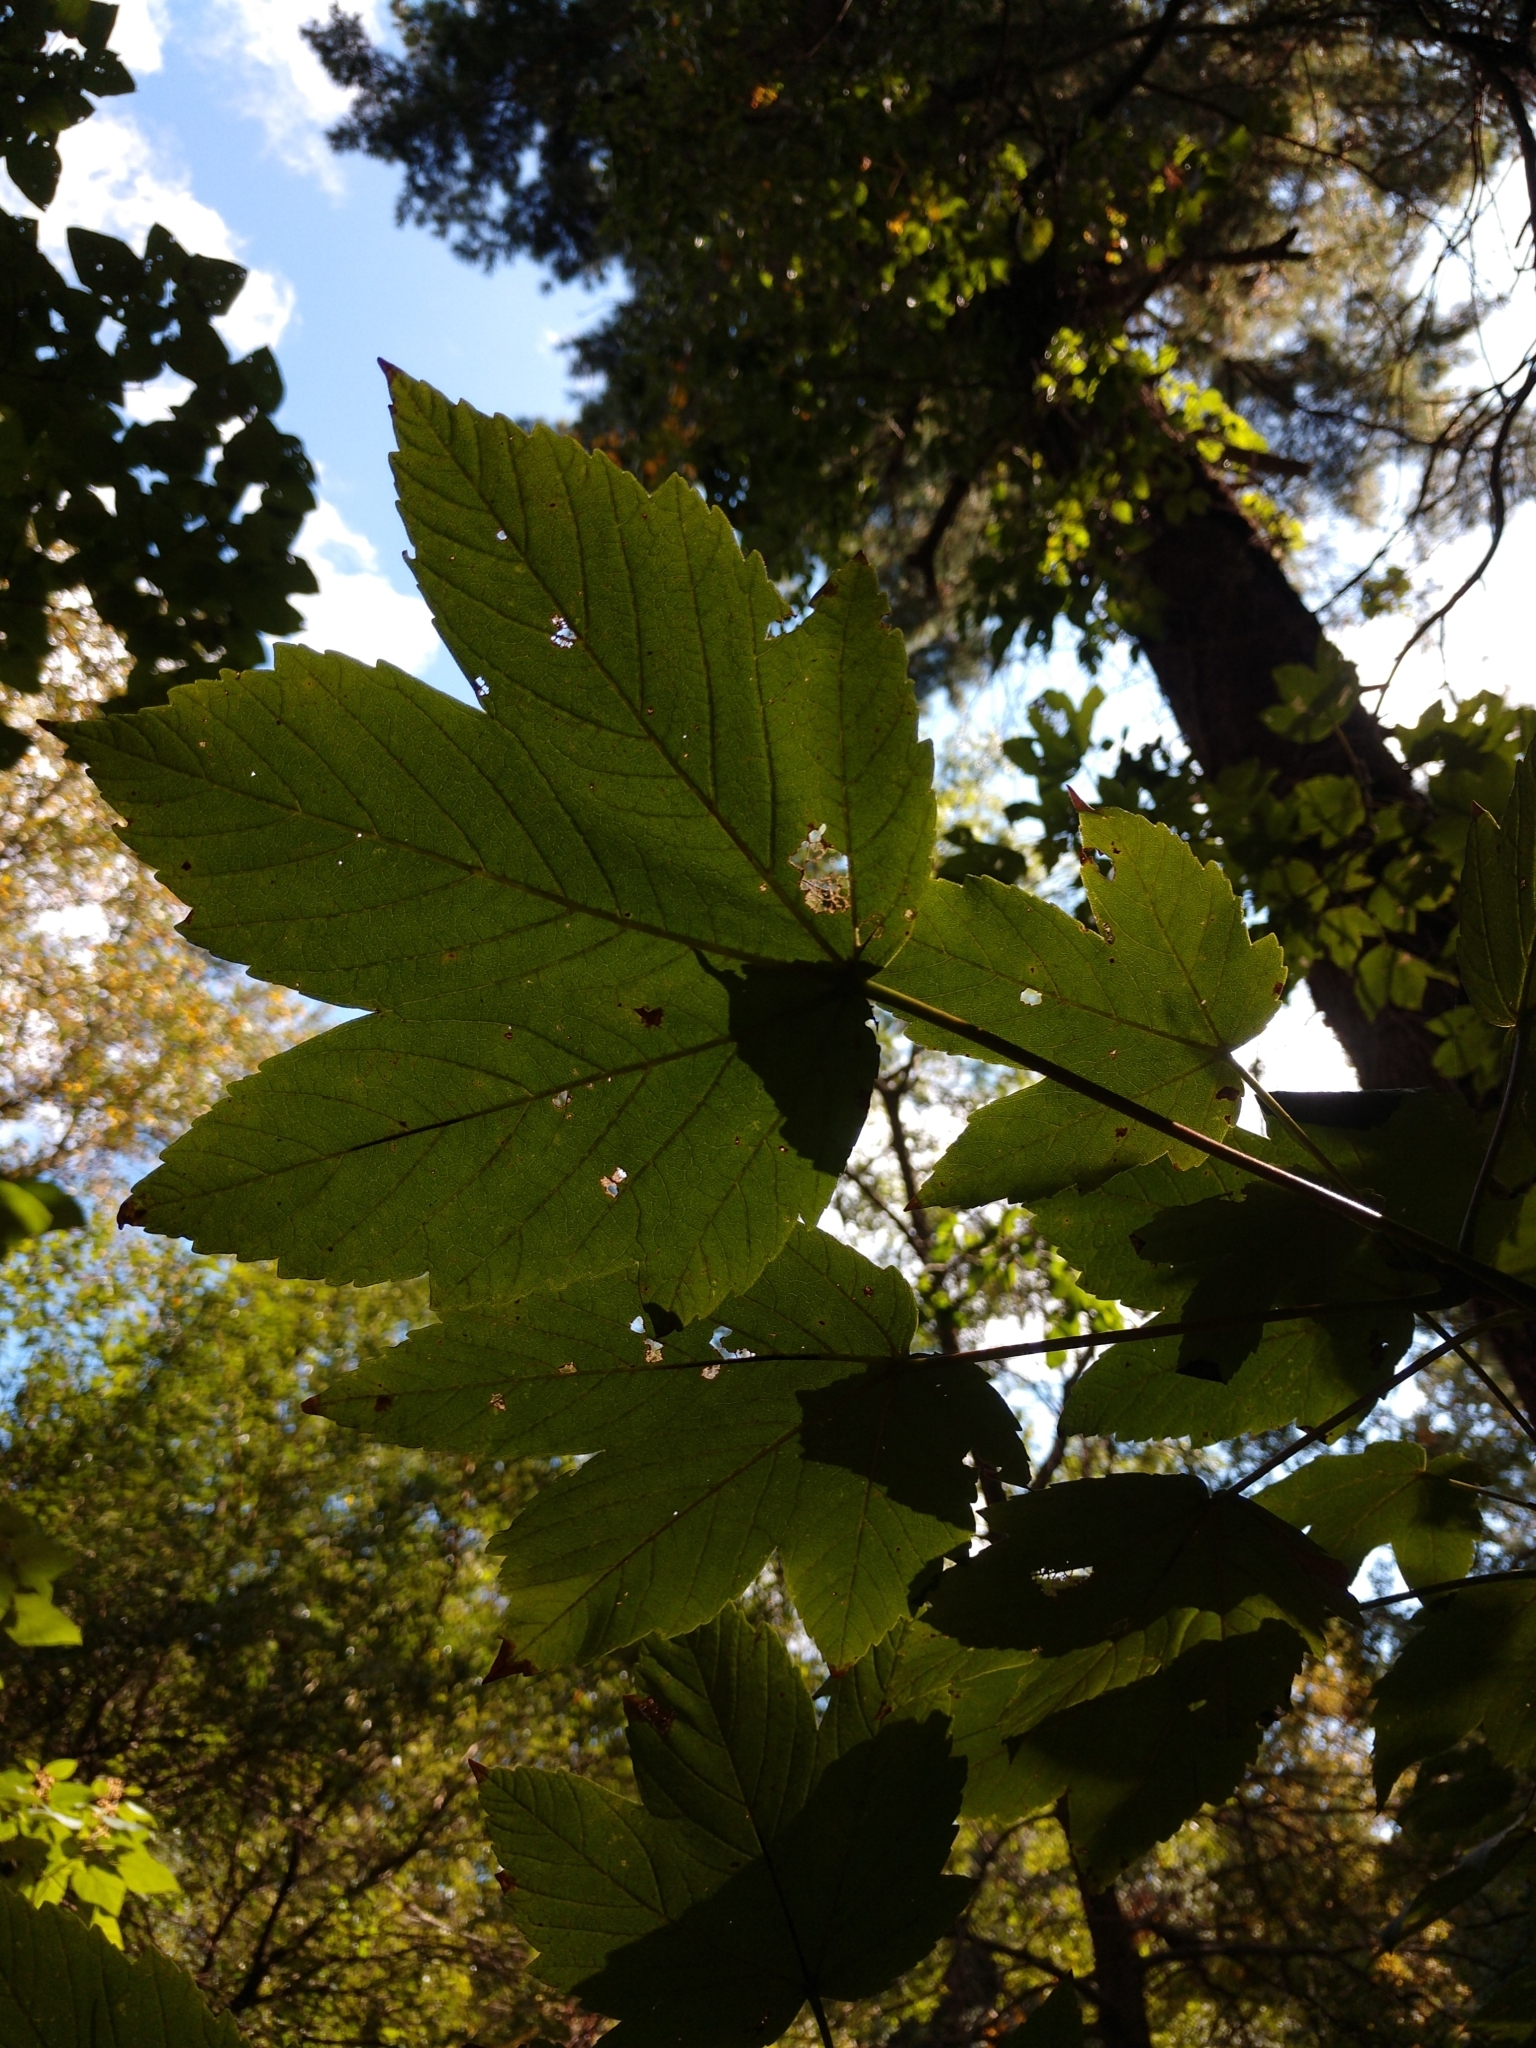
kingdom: Plantae
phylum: Tracheophyta
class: Magnoliopsida
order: Sapindales
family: Sapindaceae
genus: Acer
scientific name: Acer pseudoplatanus
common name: Sycamore
